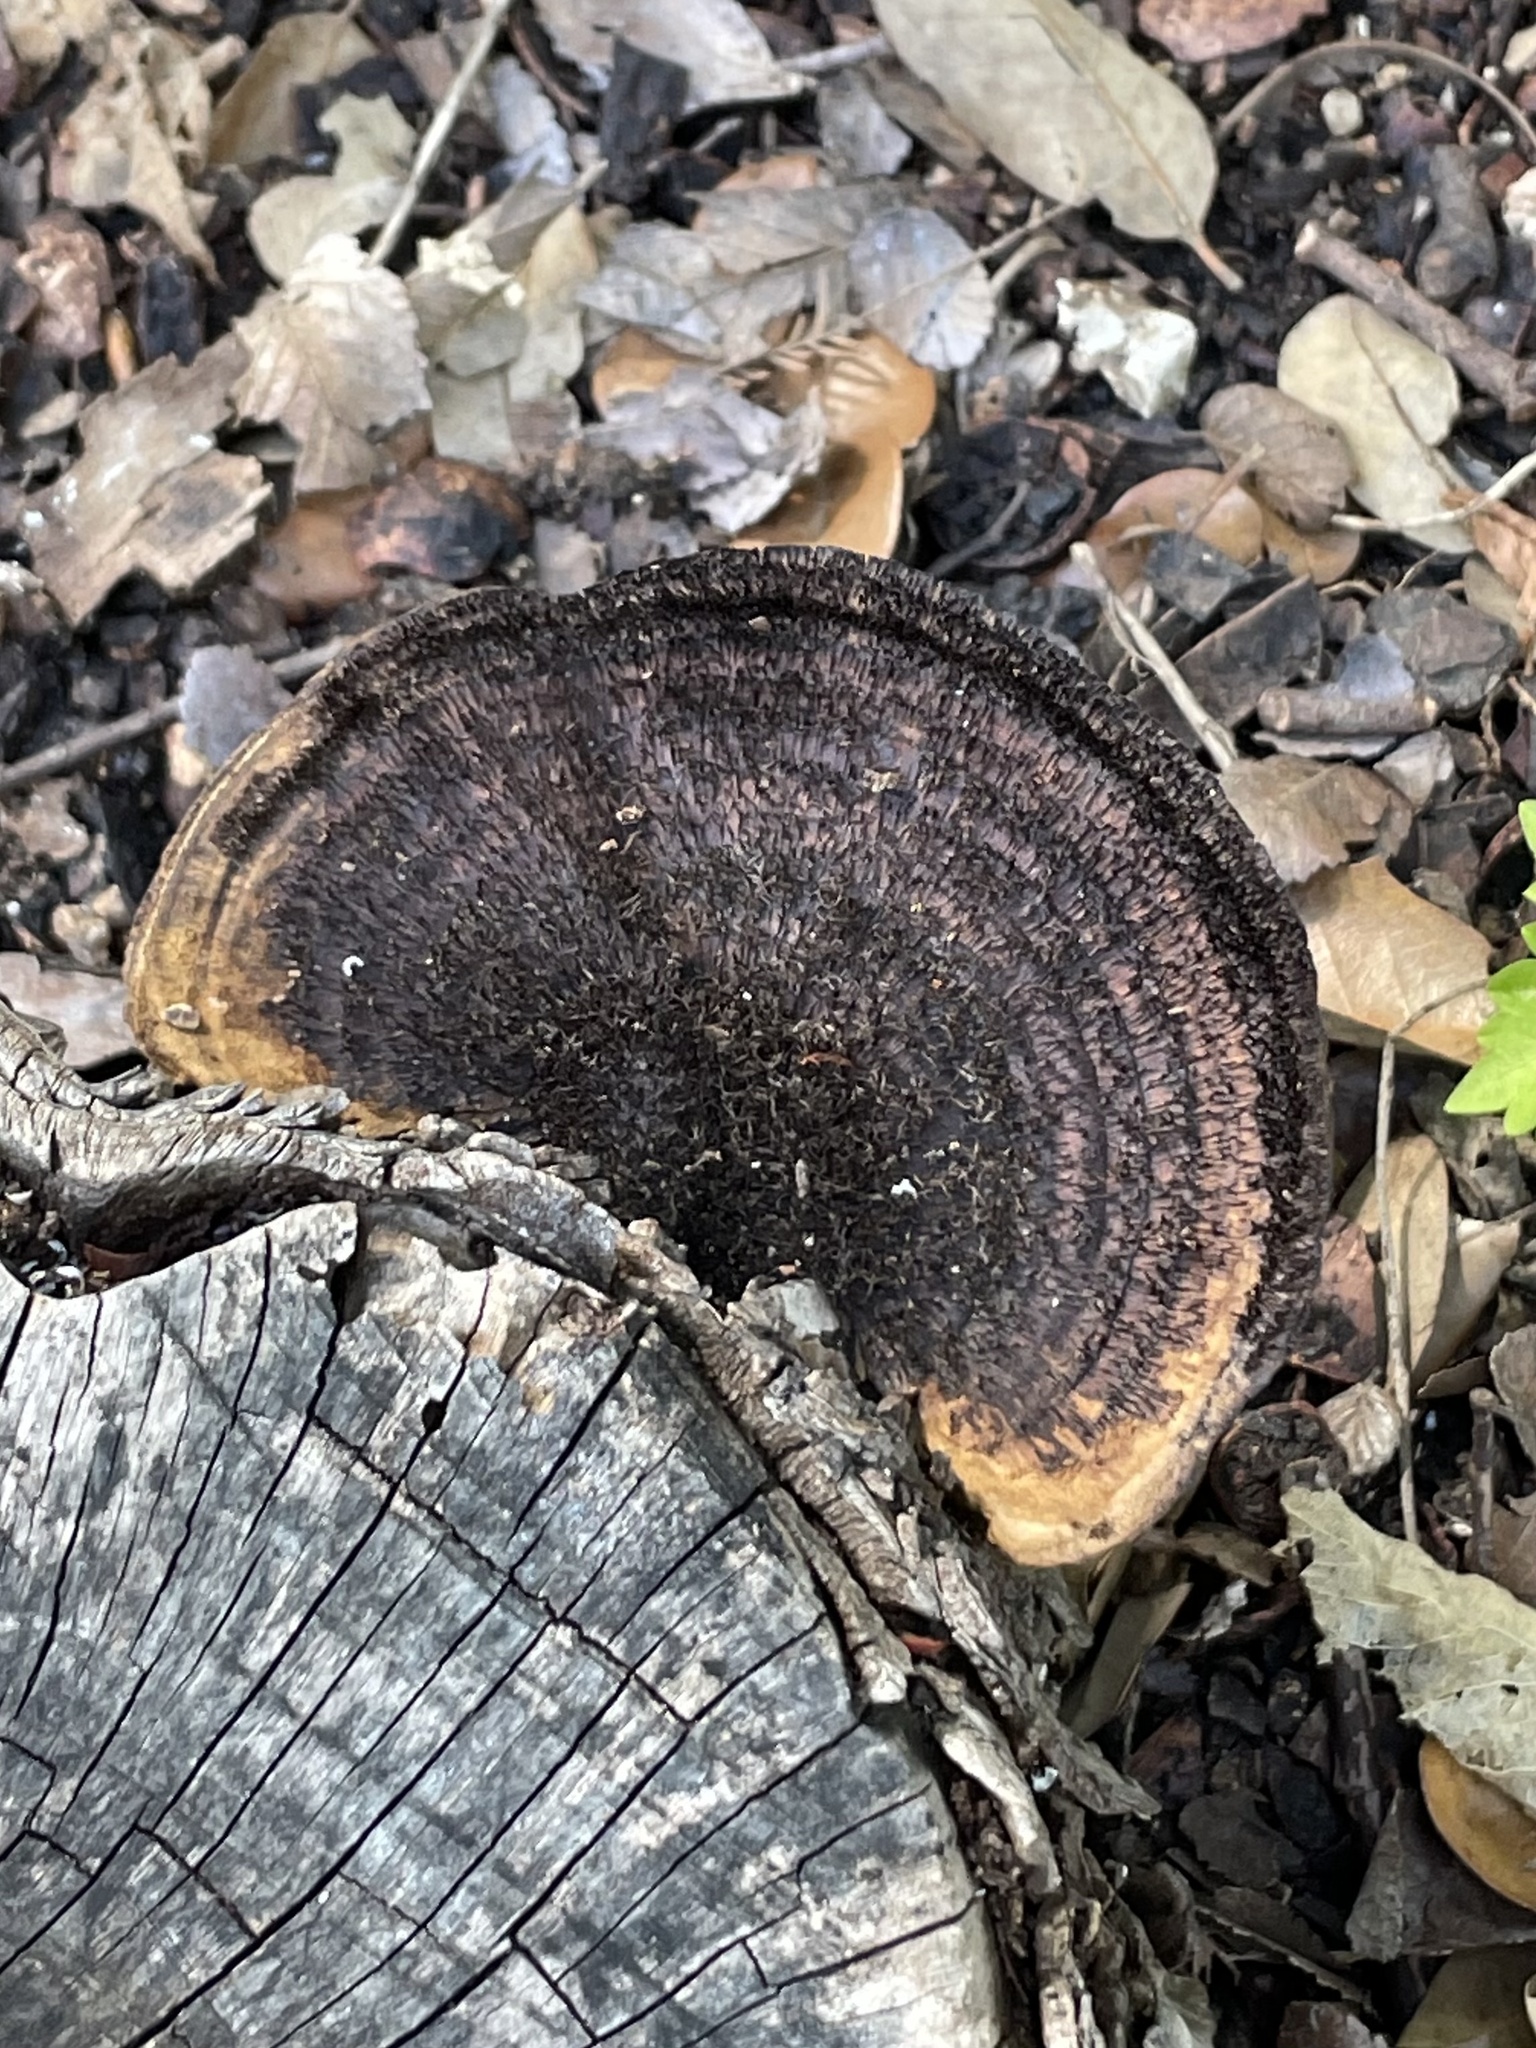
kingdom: Fungi
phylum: Basidiomycota
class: Agaricomycetes
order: Polyporales
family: Cerrenaceae
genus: Cerrena
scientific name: Cerrena hydnoides
